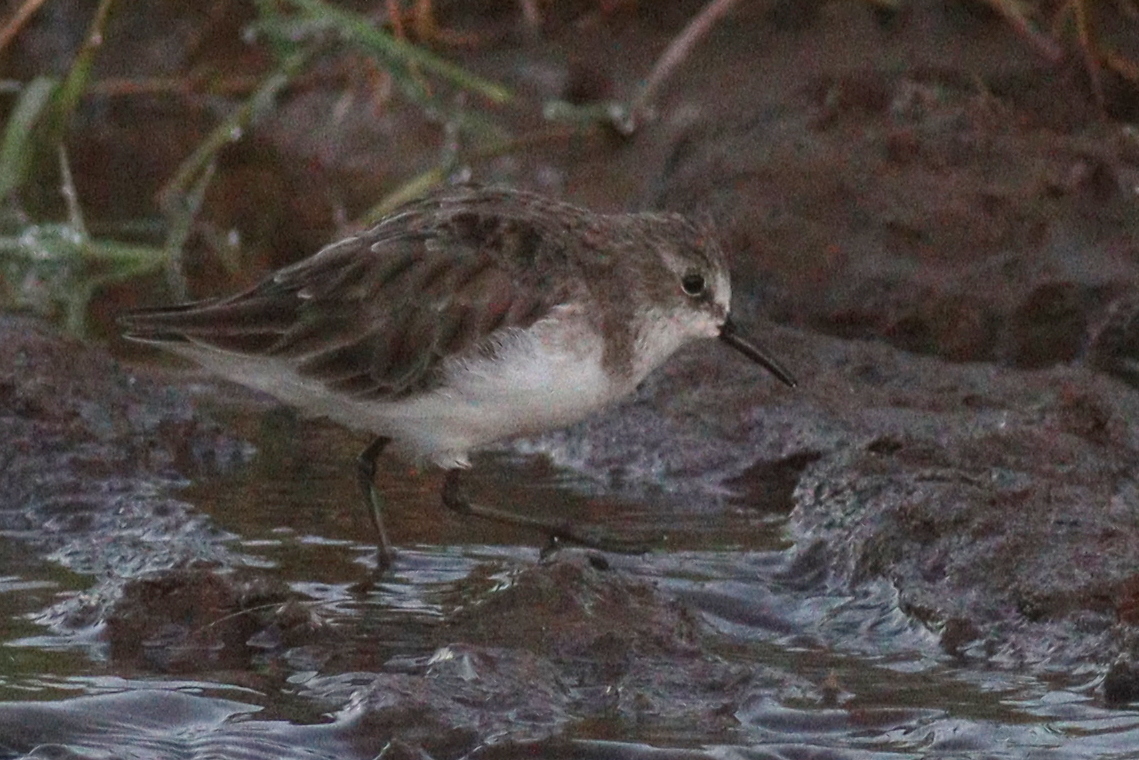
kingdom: Animalia
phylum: Chordata
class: Aves
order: Charadriiformes
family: Scolopacidae
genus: Calidris
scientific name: Calidris minuta
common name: Little stint
